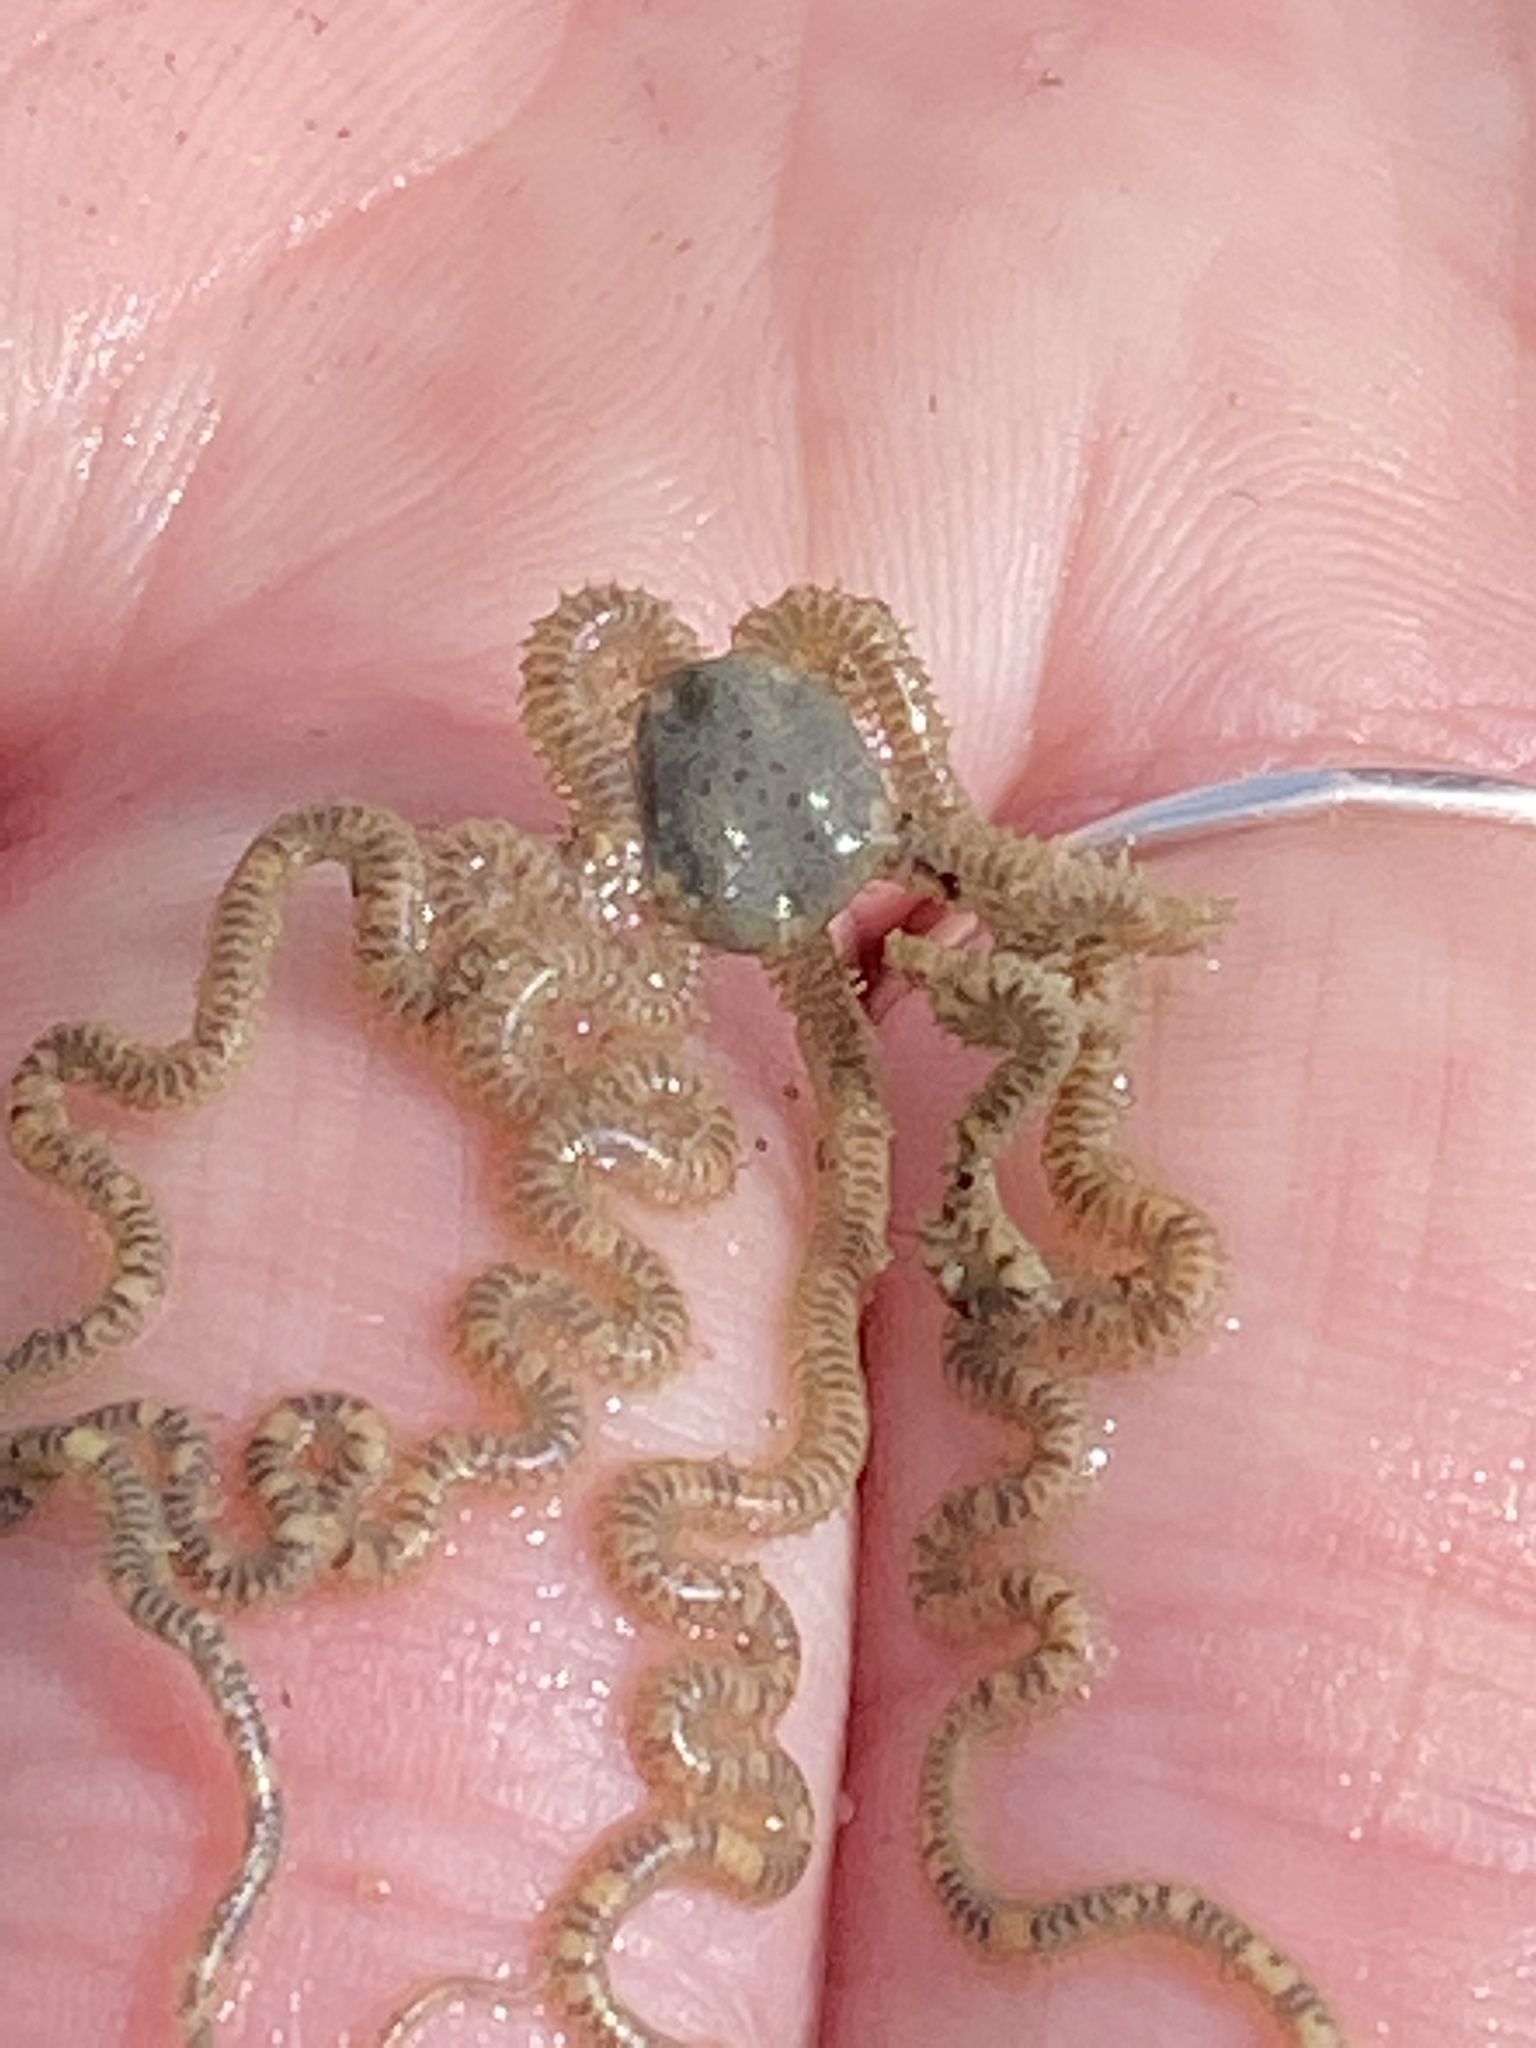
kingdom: Animalia
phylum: Echinodermata
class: Ophiuroidea
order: Amphilepidida
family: Amphiuridae
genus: Amphiodia
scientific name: Amphiodia occidentalis
